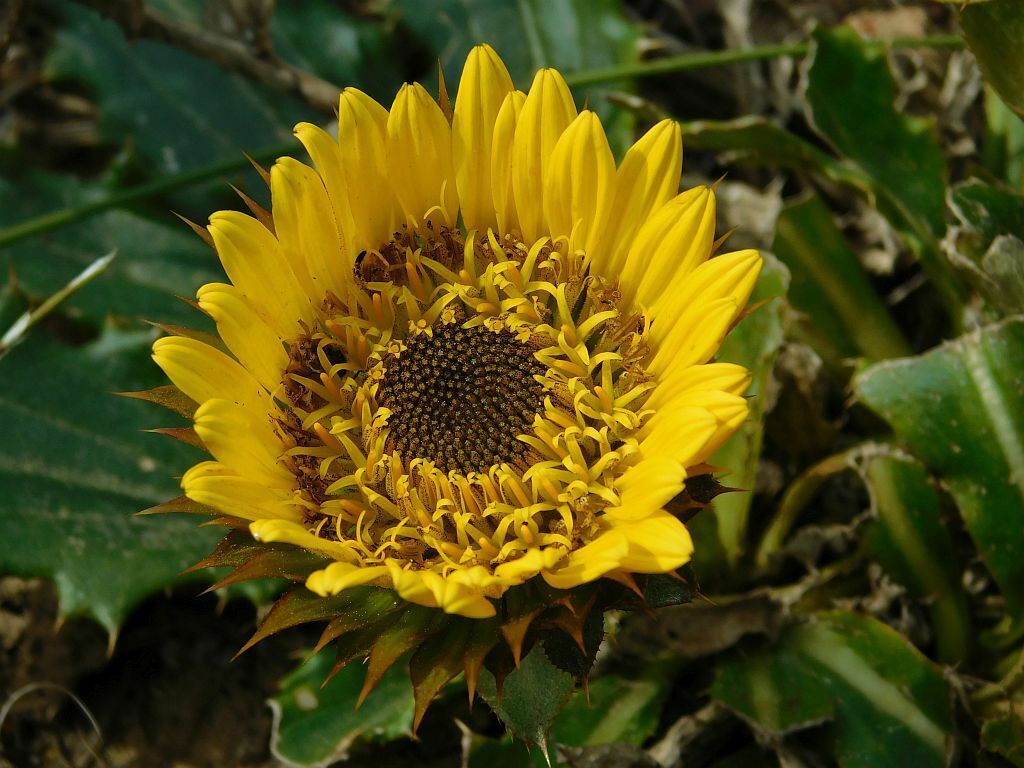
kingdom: Plantae
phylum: Tracheophyta
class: Magnoliopsida
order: Asterales
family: Asteraceae
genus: Berkheya
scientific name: Berkheya armata
